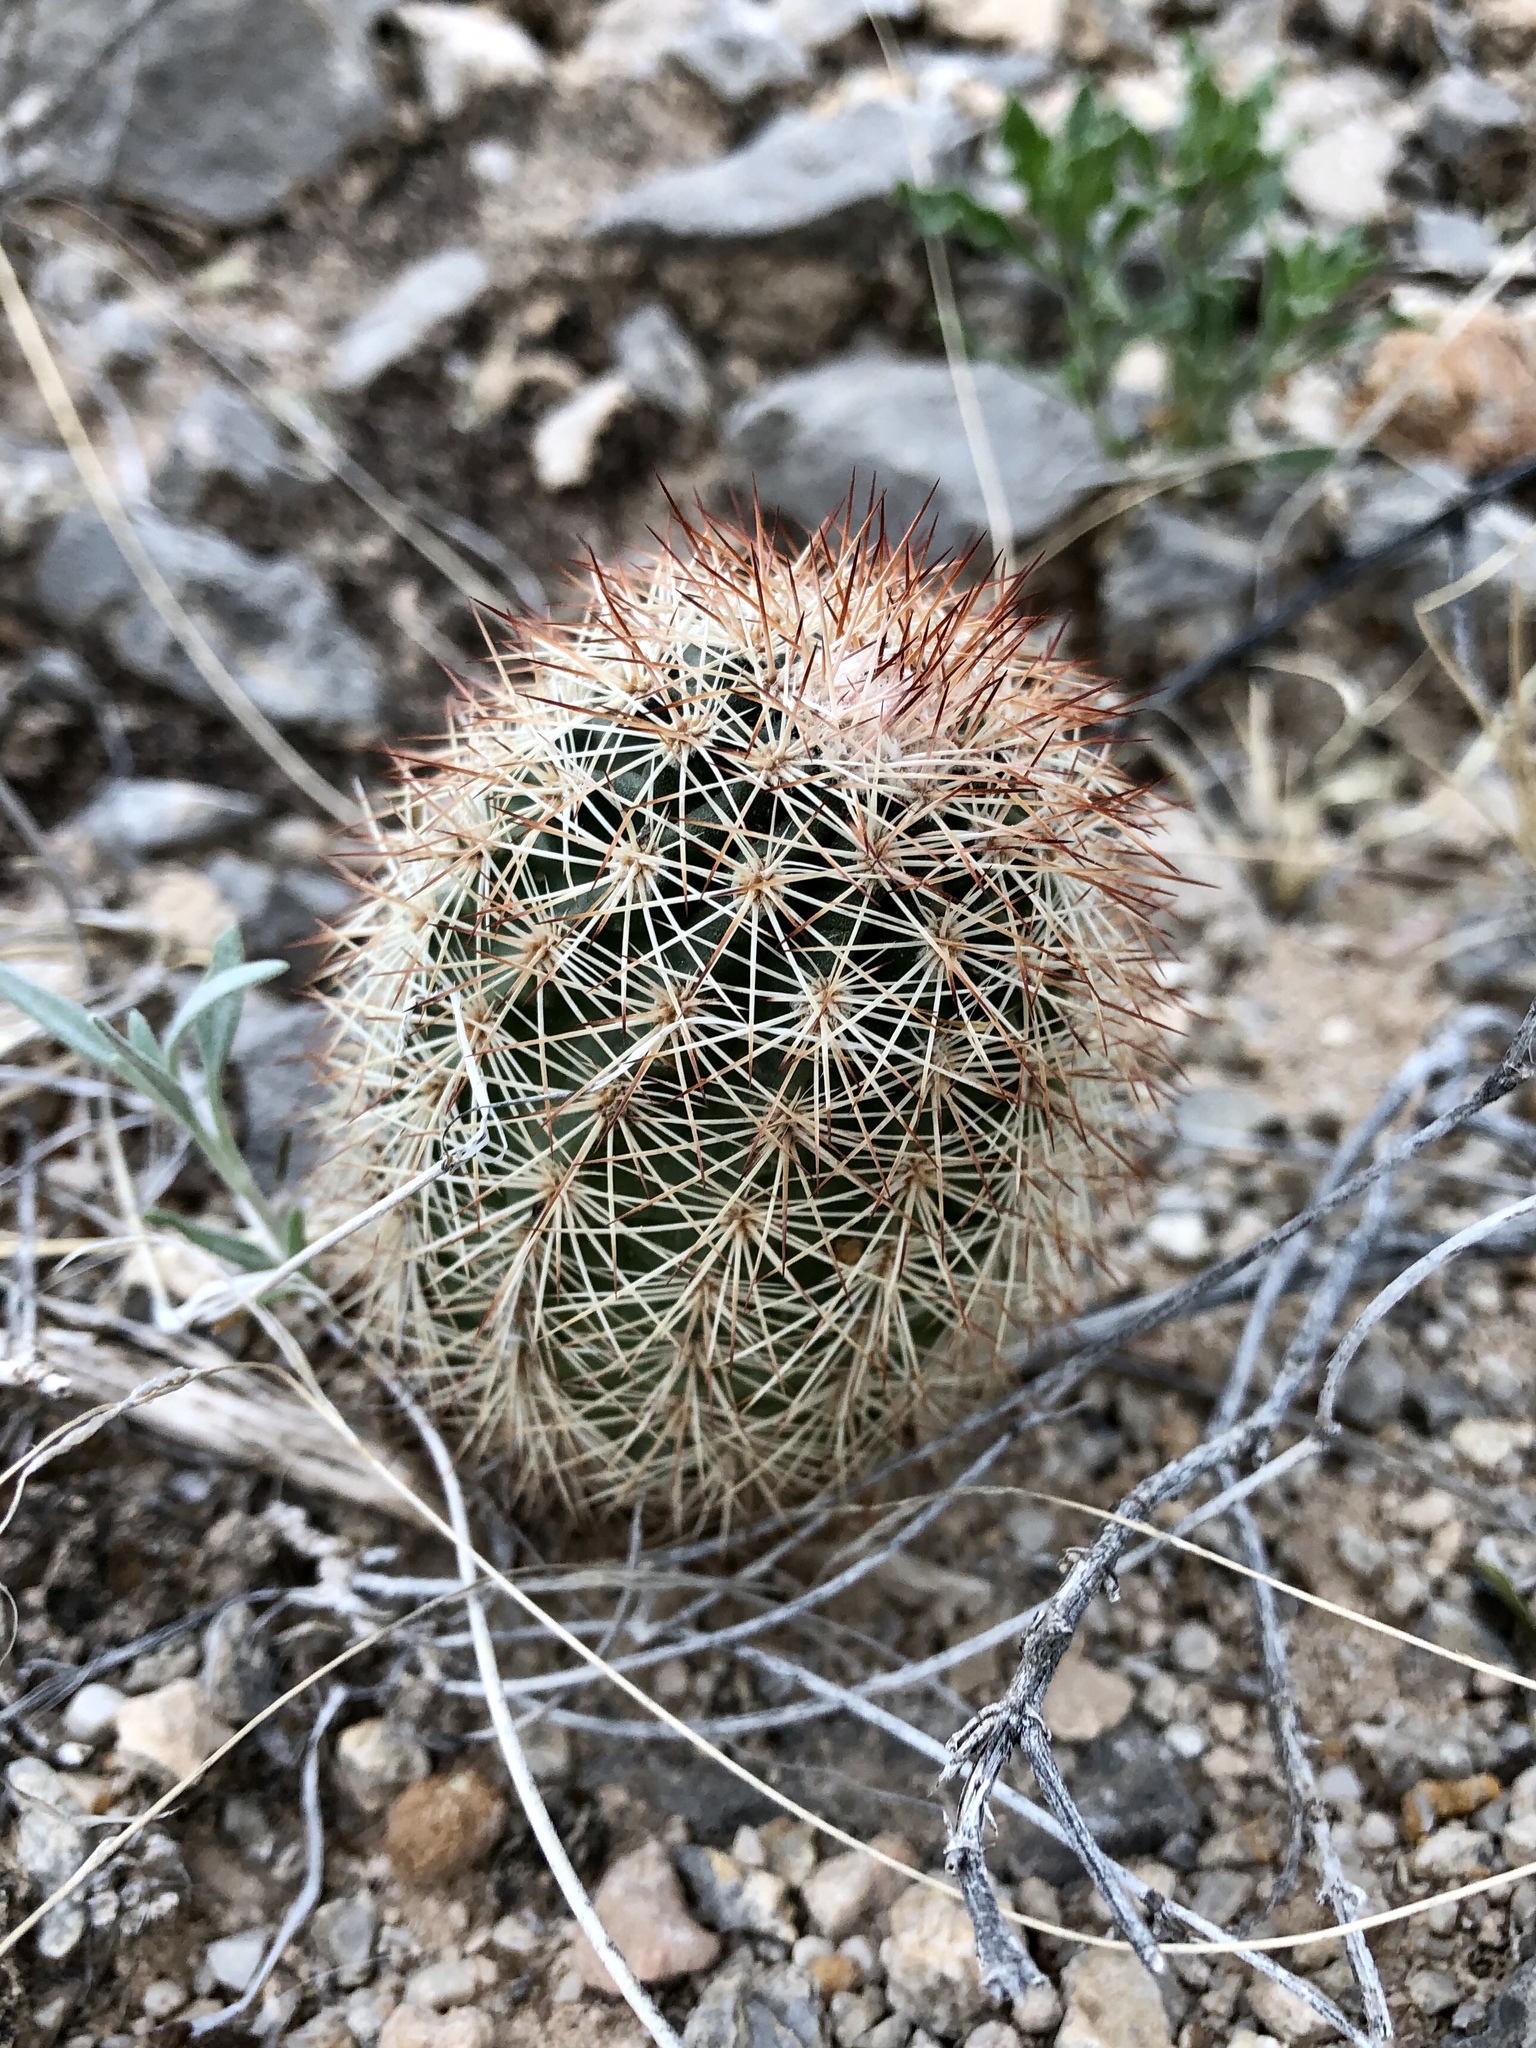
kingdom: Plantae
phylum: Tracheophyta
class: Magnoliopsida
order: Caryophyllales
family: Cactaceae
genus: Echinocereus
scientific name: Echinocereus roetteri
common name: Lloyd's hedgehog cactus
